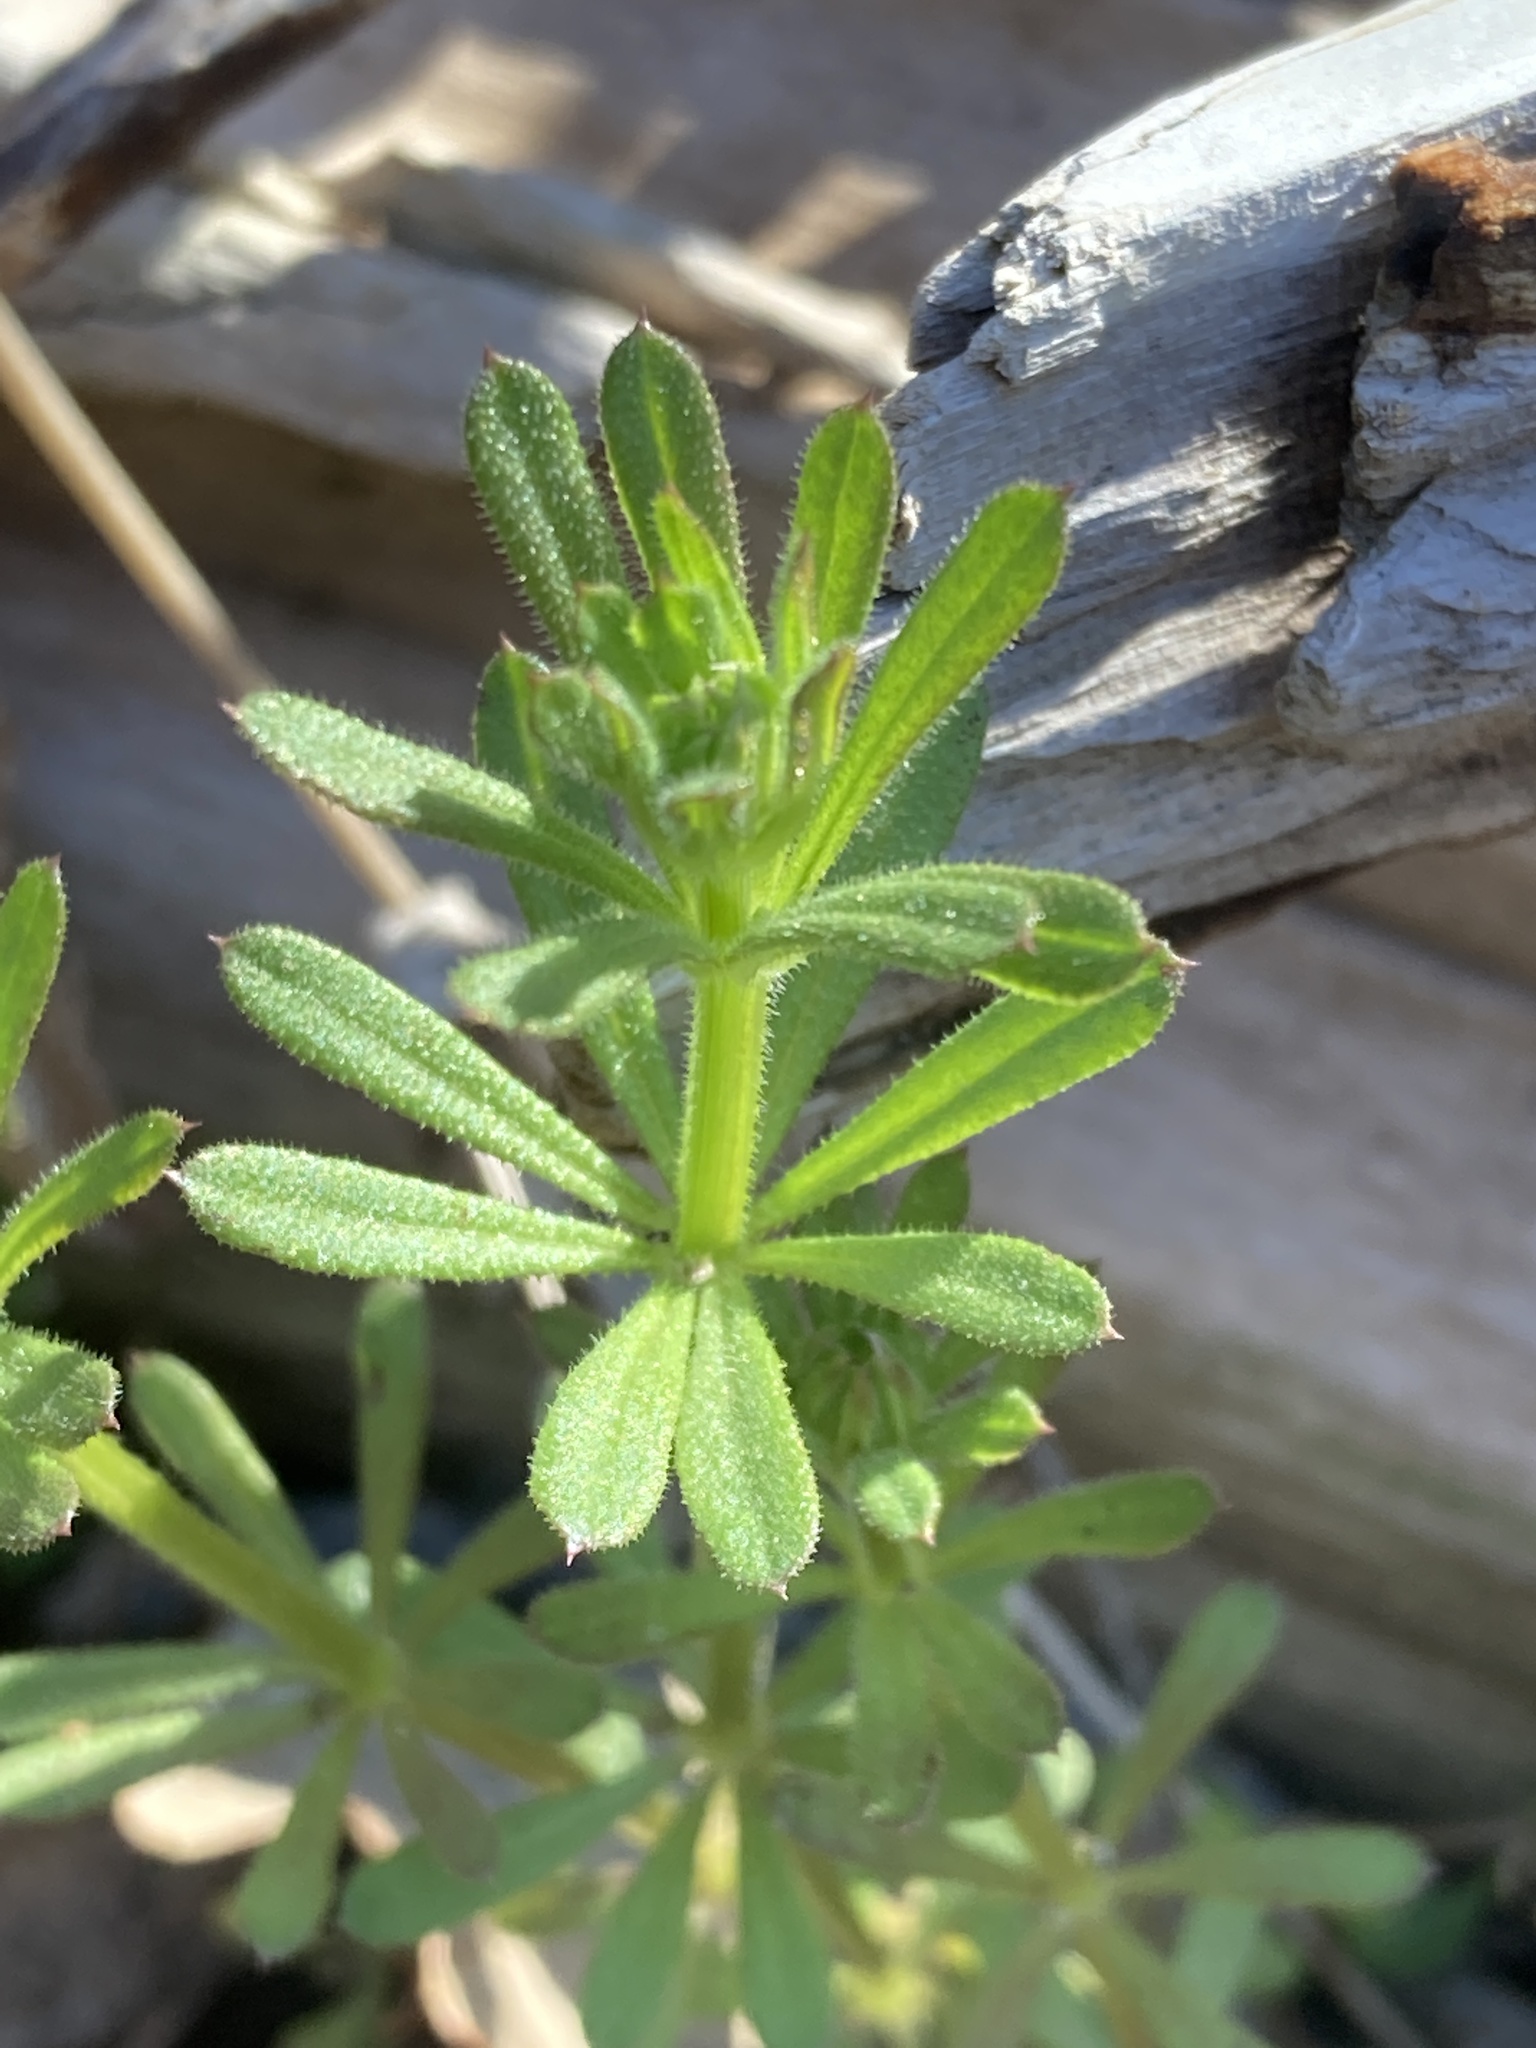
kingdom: Plantae
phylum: Tracheophyta
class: Magnoliopsida
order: Gentianales
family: Rubiaceae
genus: Galium
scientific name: Galium aparine
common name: Cleavers
